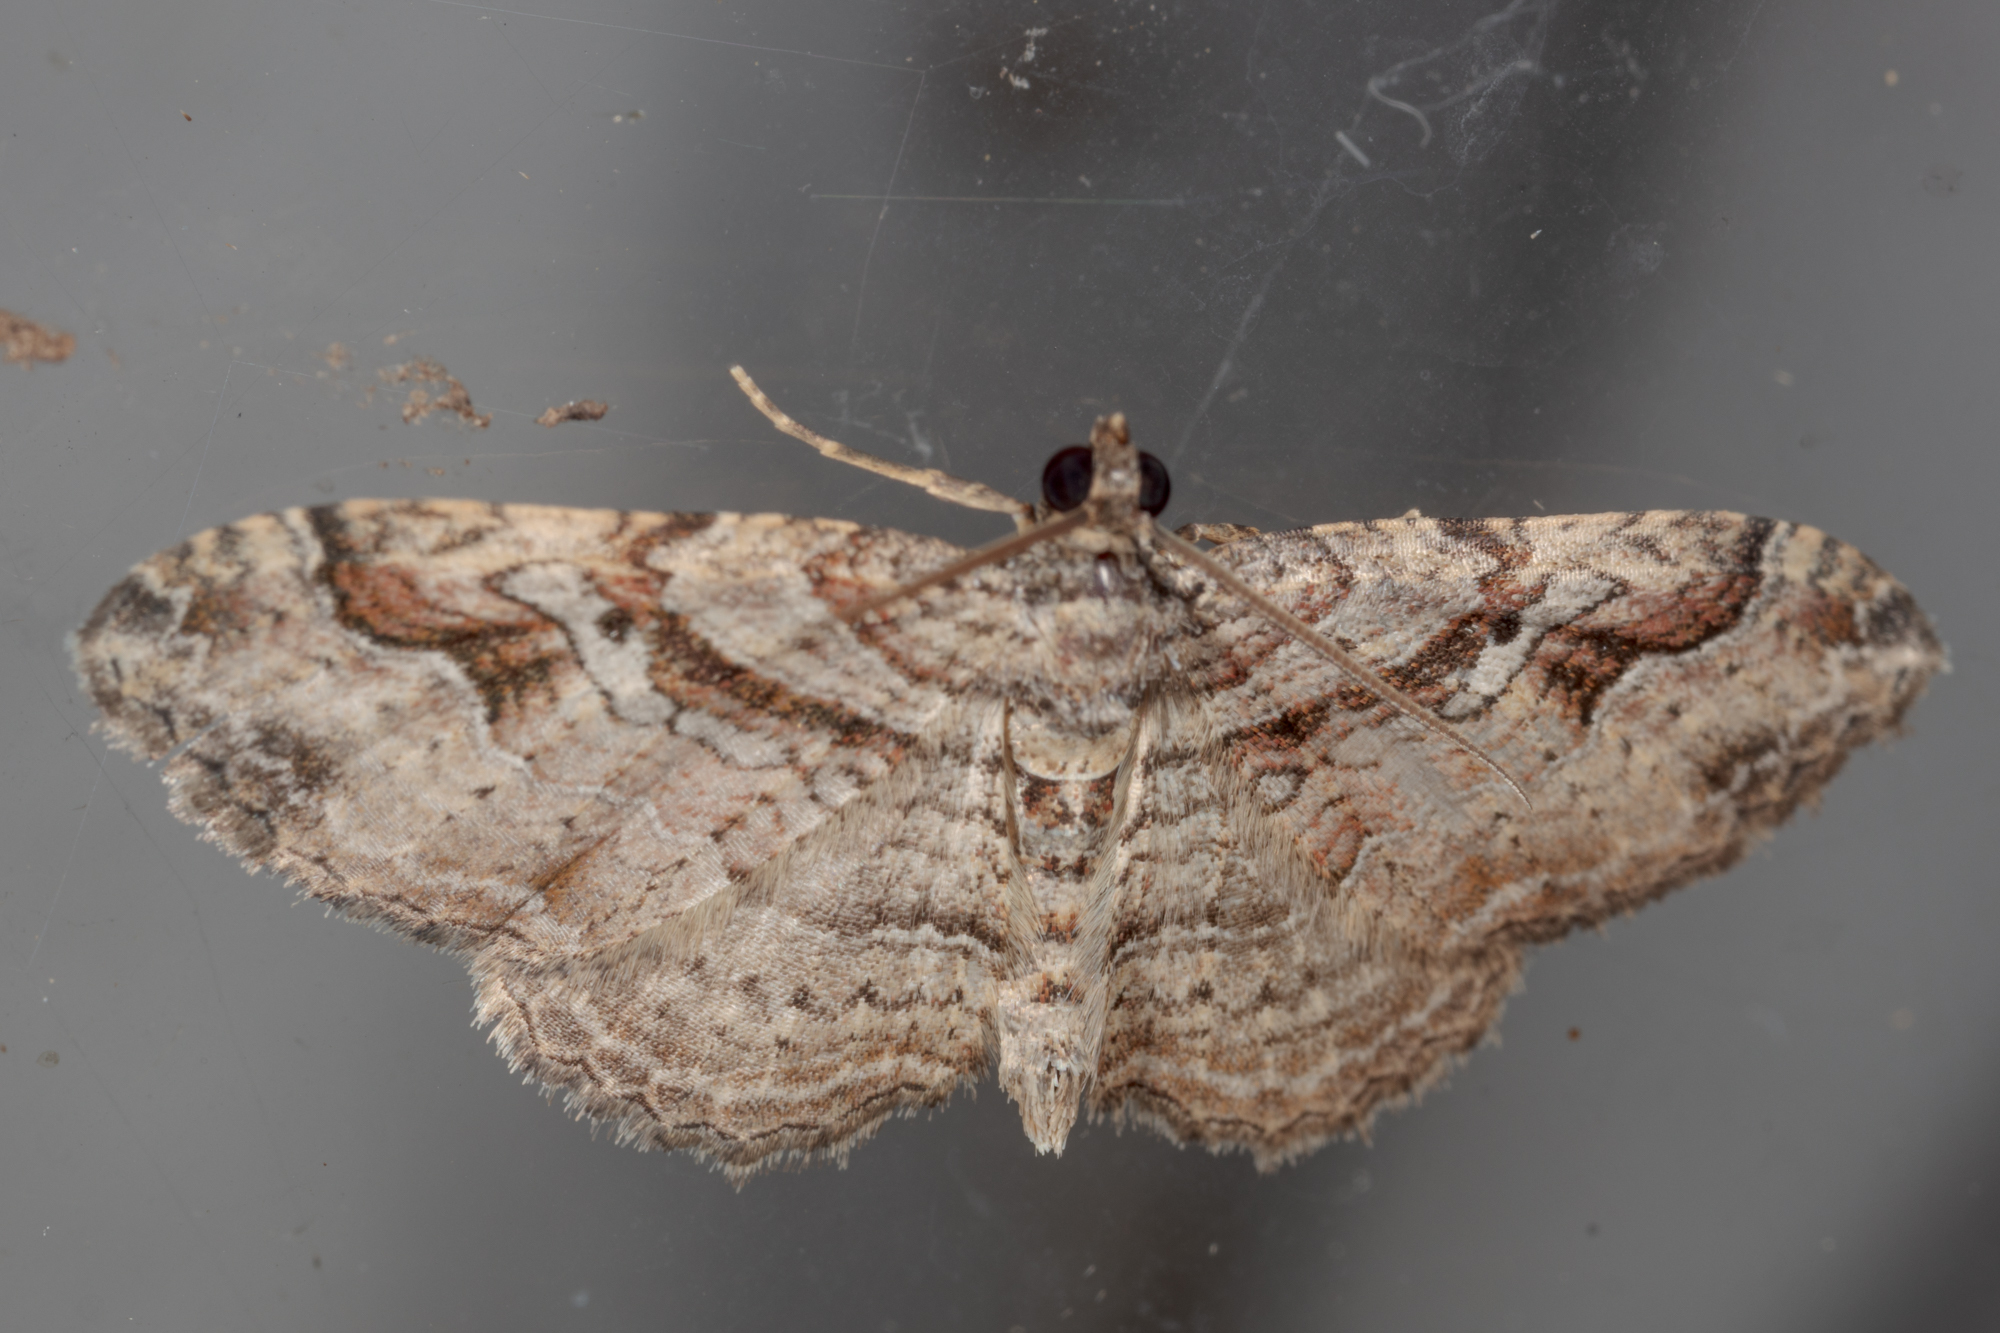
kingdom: Animalia
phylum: Arthropoda
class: Insecta
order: Lepidoptera
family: Geometridae
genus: Costaconvexa
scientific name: Costaconvexa centrostrigaria
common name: Bent-line carpet
